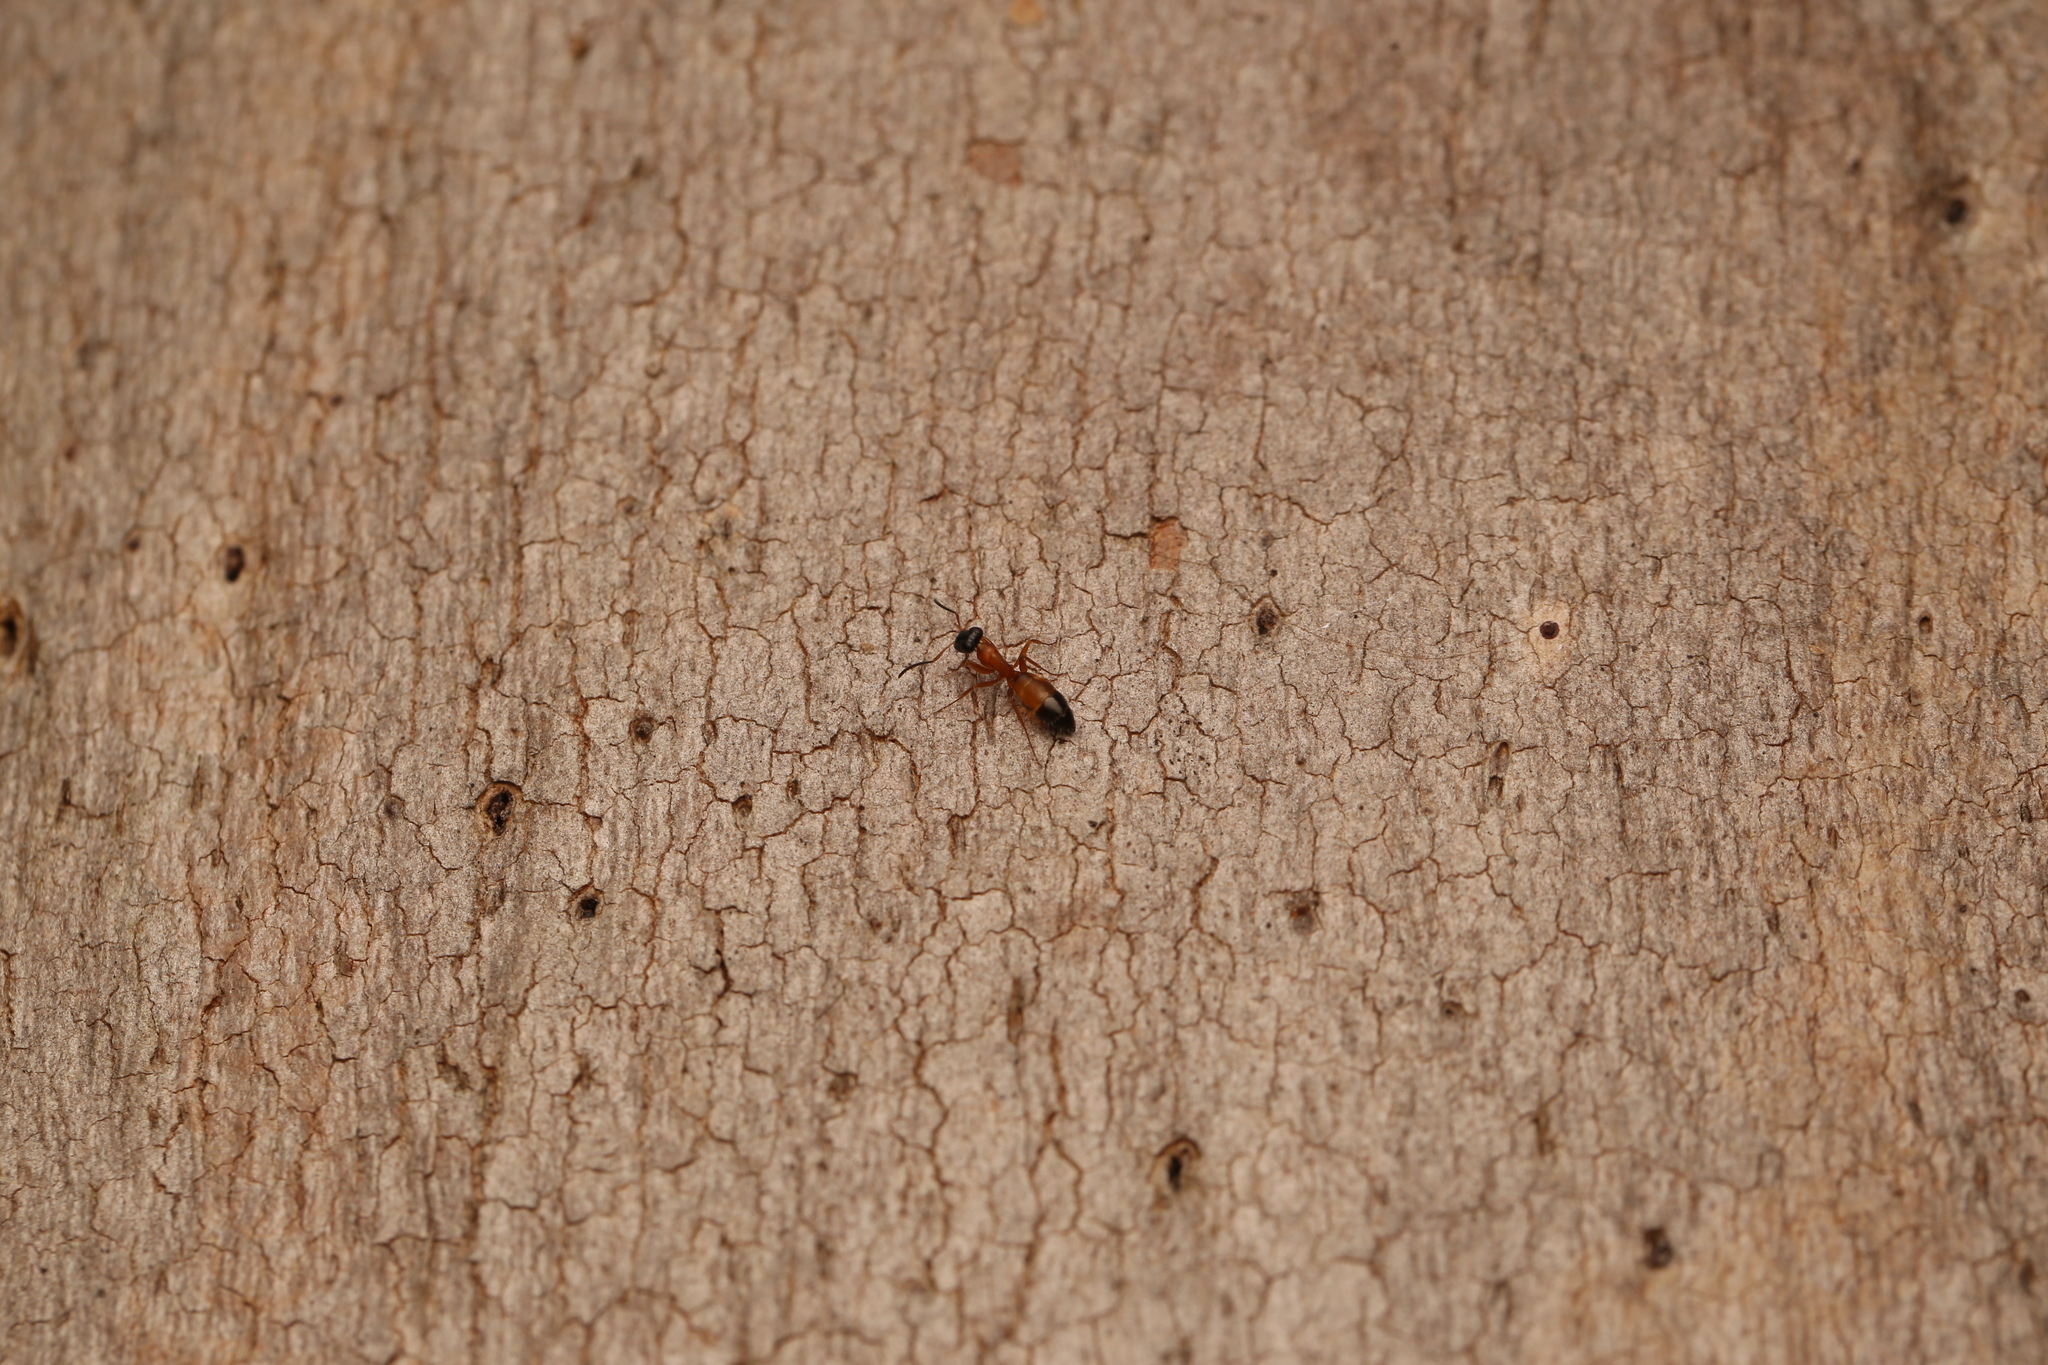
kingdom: Animalia
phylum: Arthropoda
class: Insecta
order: Hymenoptera
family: Formicidae
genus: Opisthopsis
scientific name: Opisthopsis rufithorax
